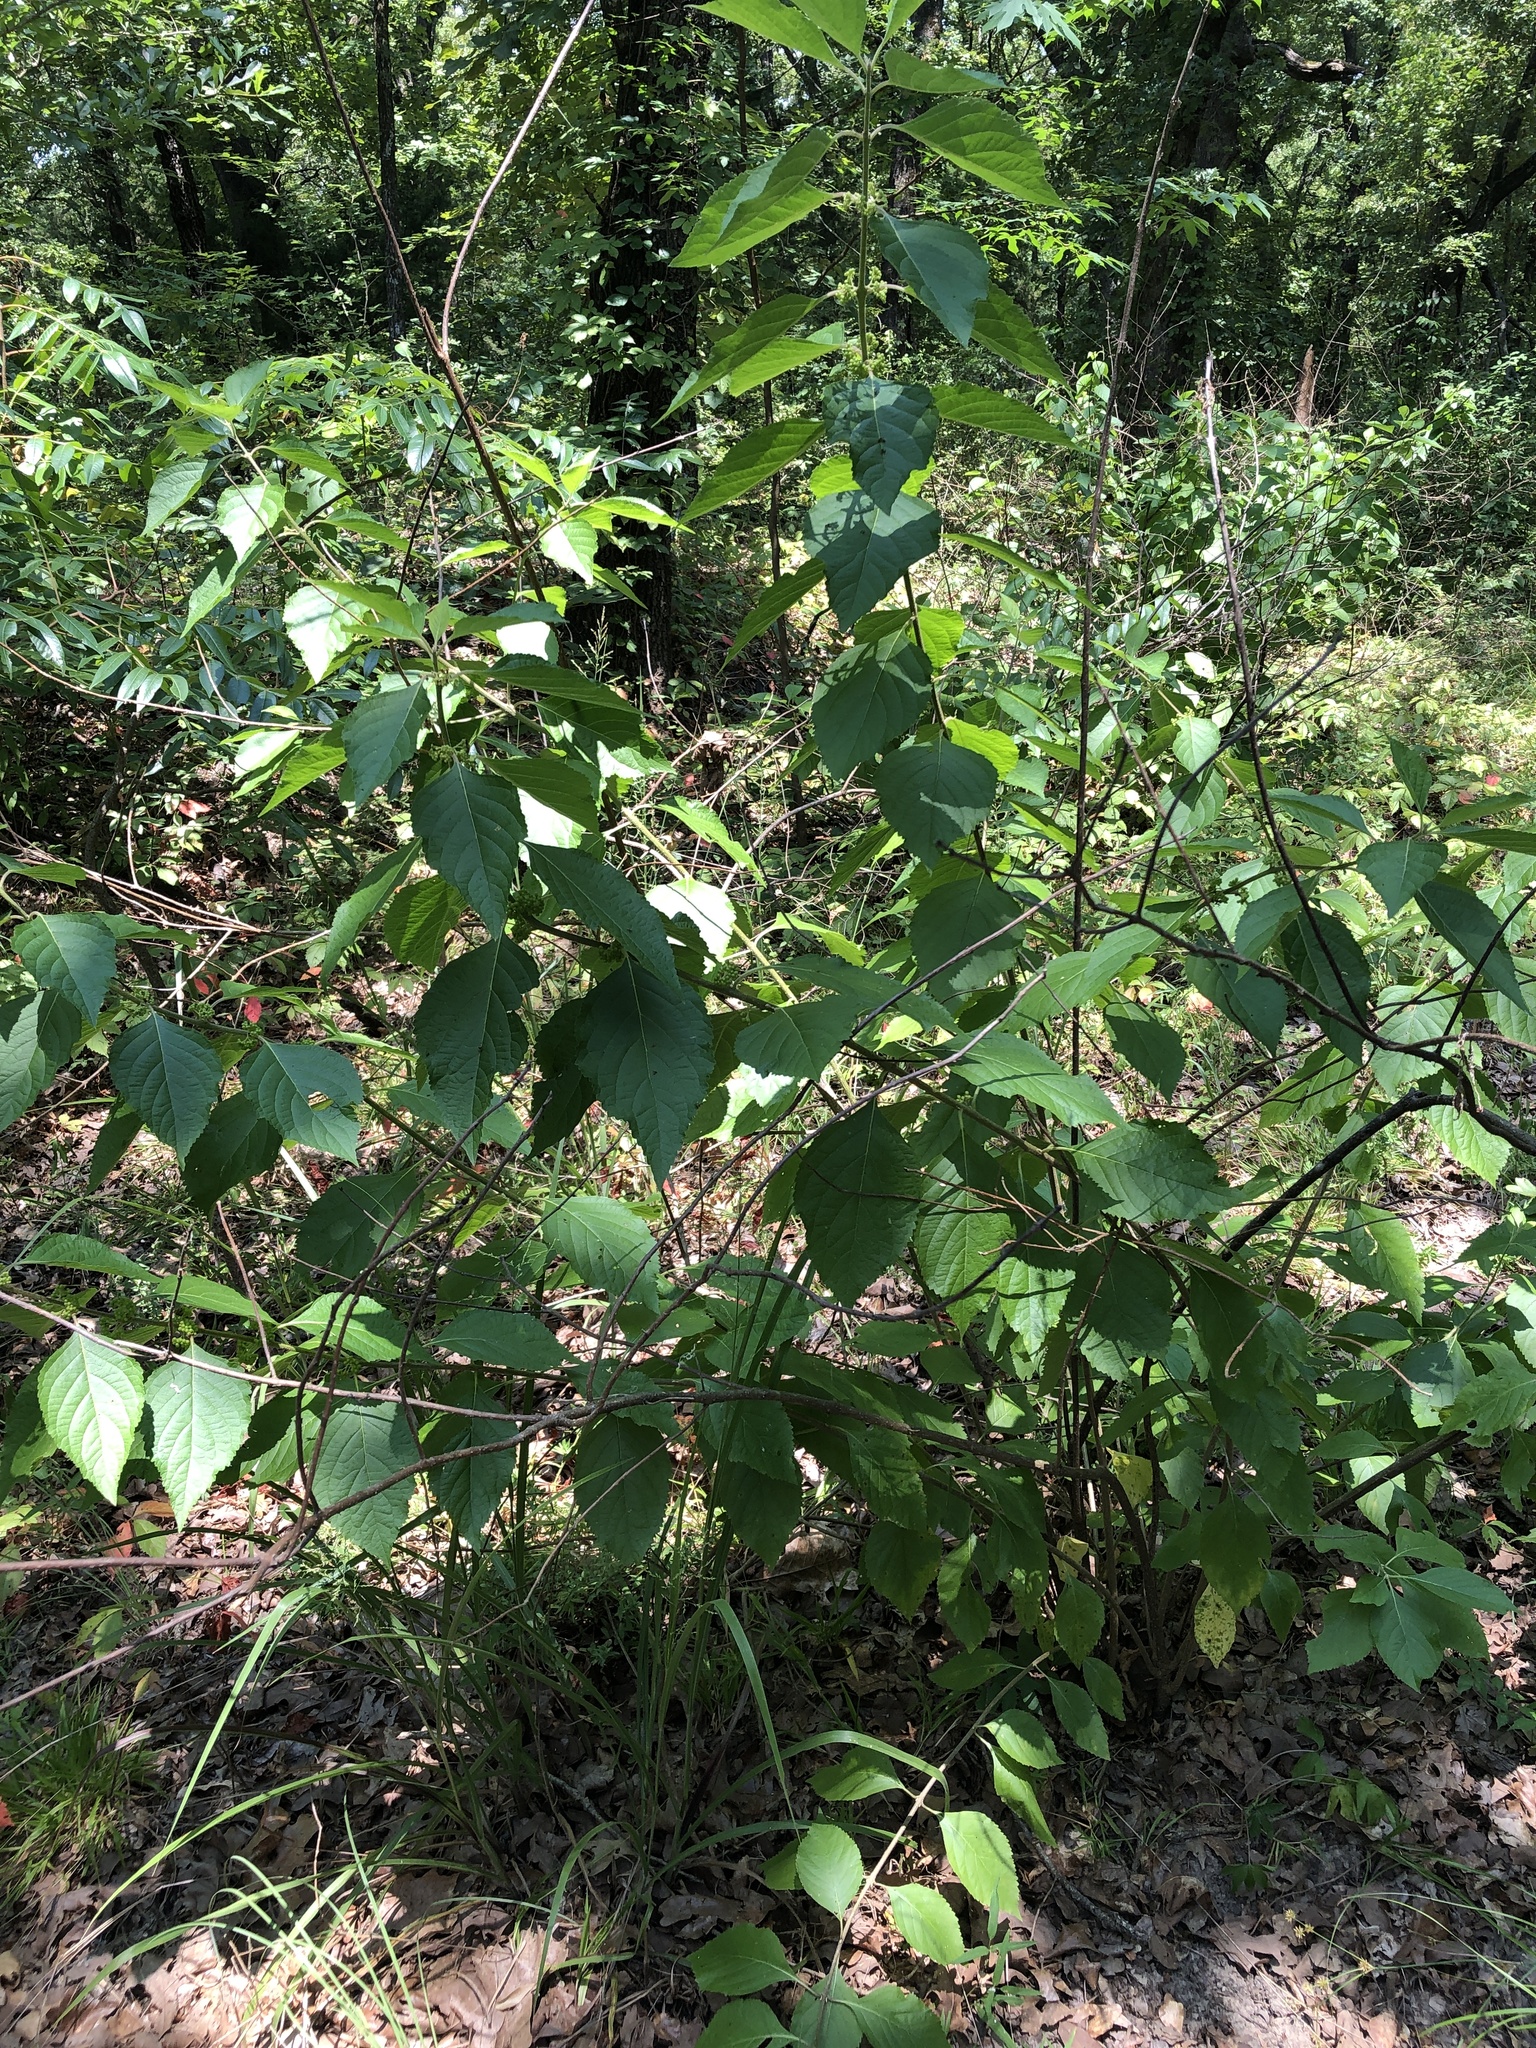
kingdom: Plantae
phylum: Tracheophyta
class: Magnoliopsida
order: Lamiales
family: Lamiaceae
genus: Callicarpa
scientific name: Callicarpa americana
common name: American beautyberry
